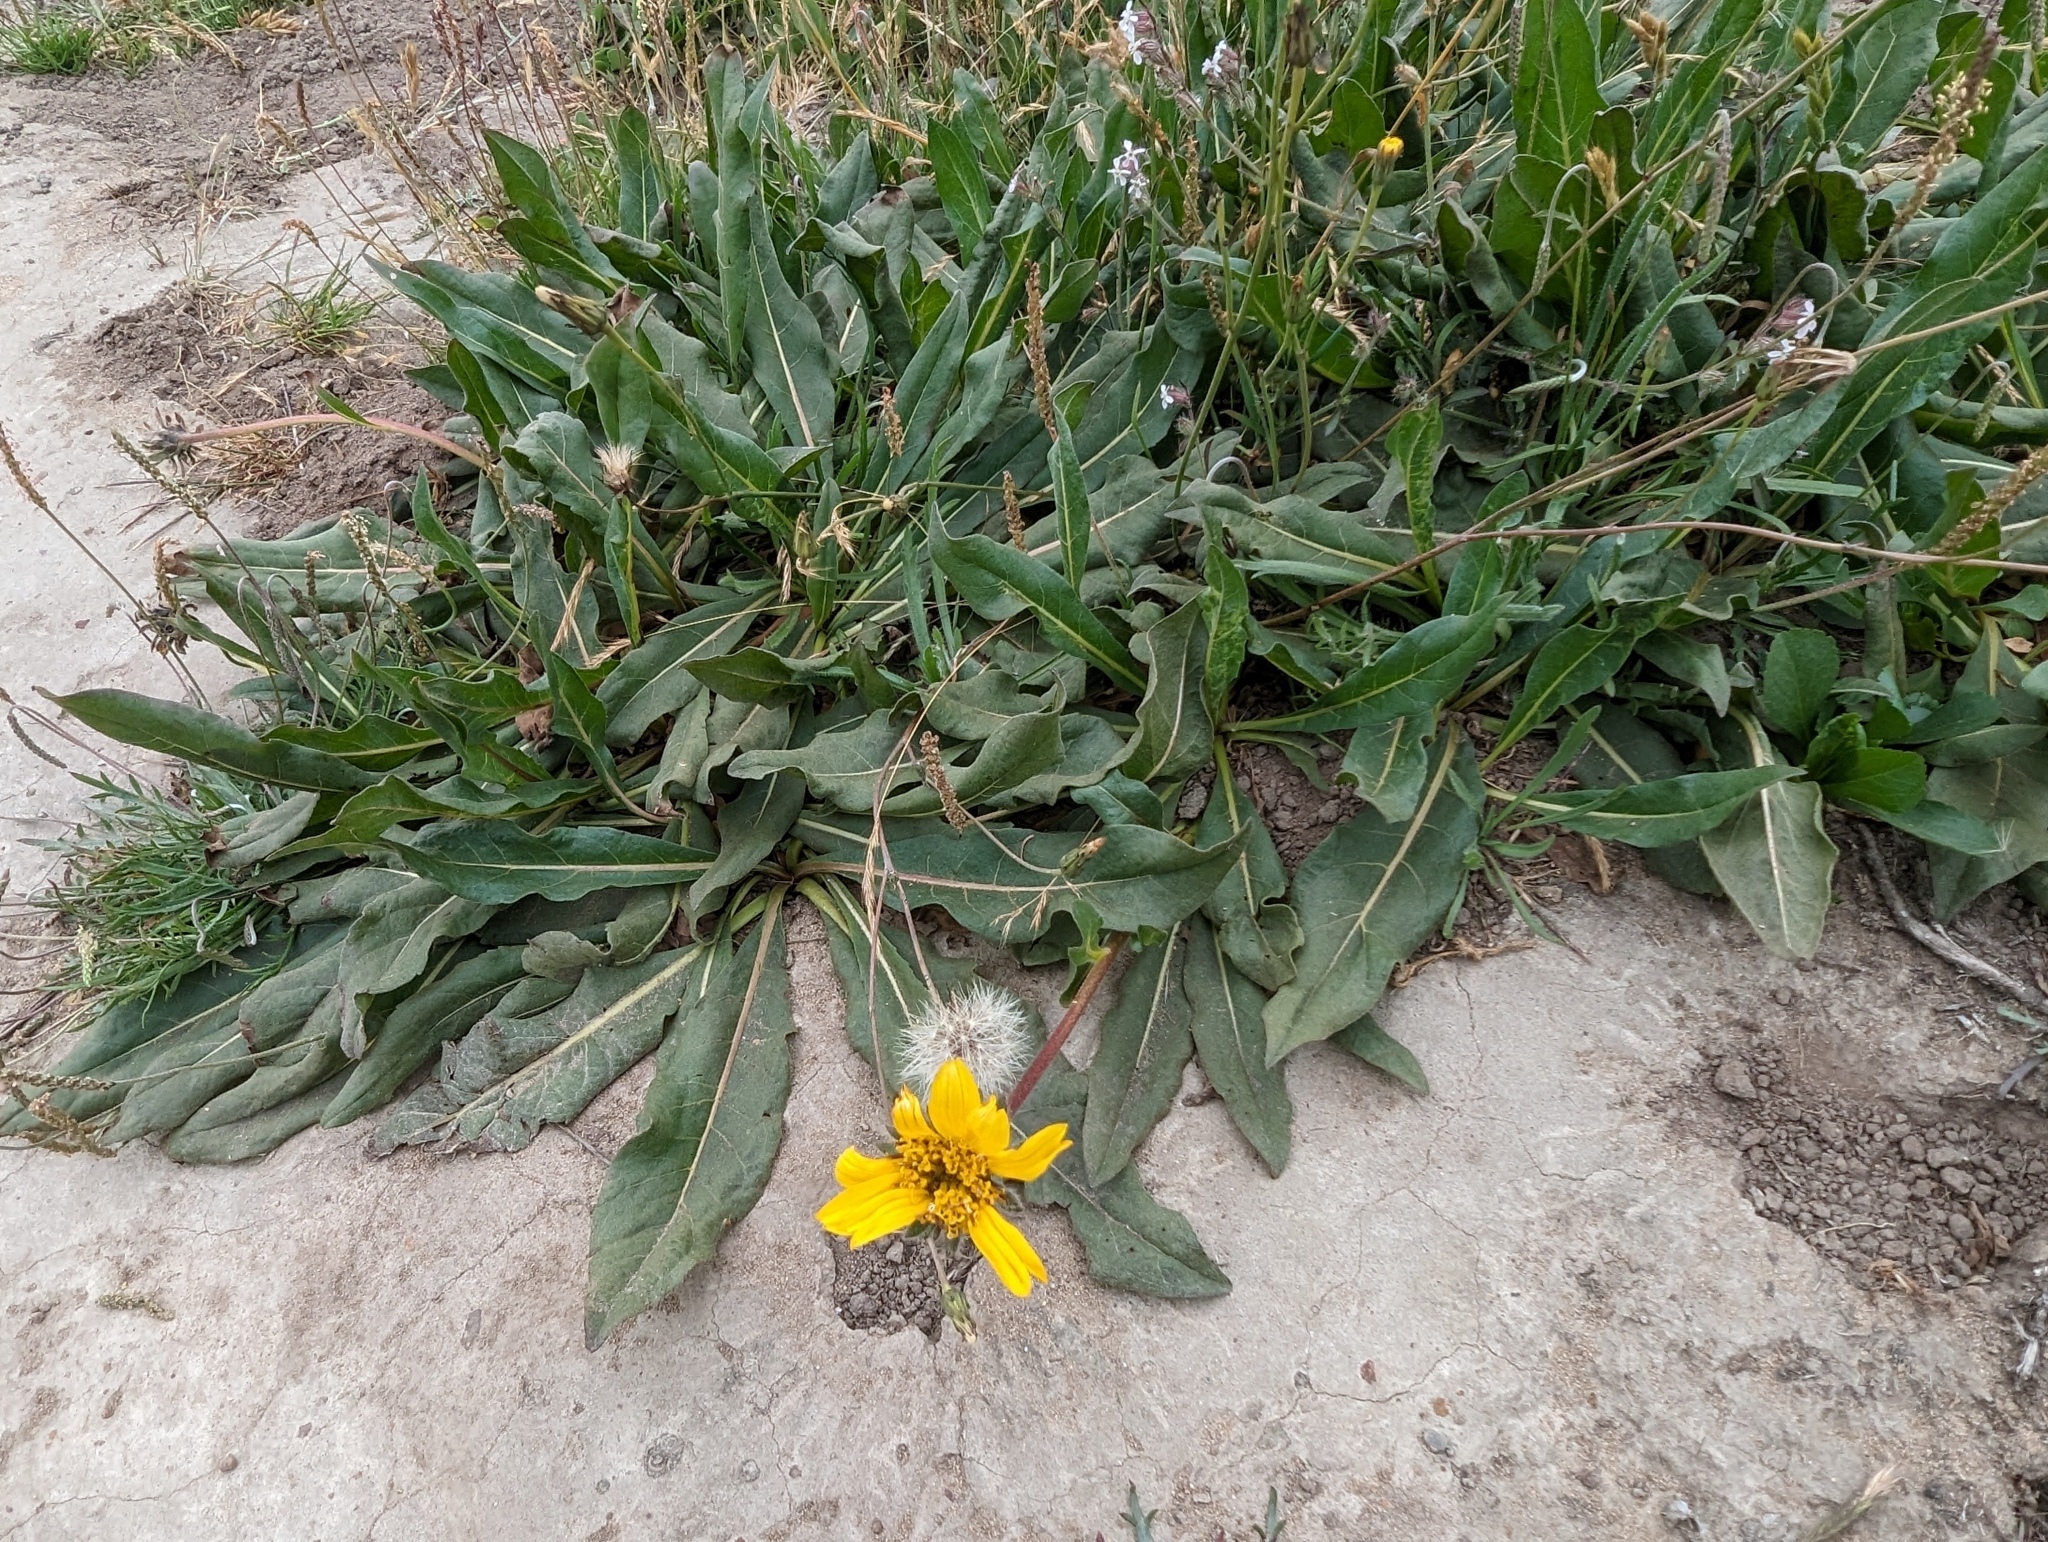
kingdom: Plantae
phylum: Tracheophyta
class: Magnoliopsida
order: Asterales
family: Asteraceae
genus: Wyethia
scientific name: Wyethia angustifolia
